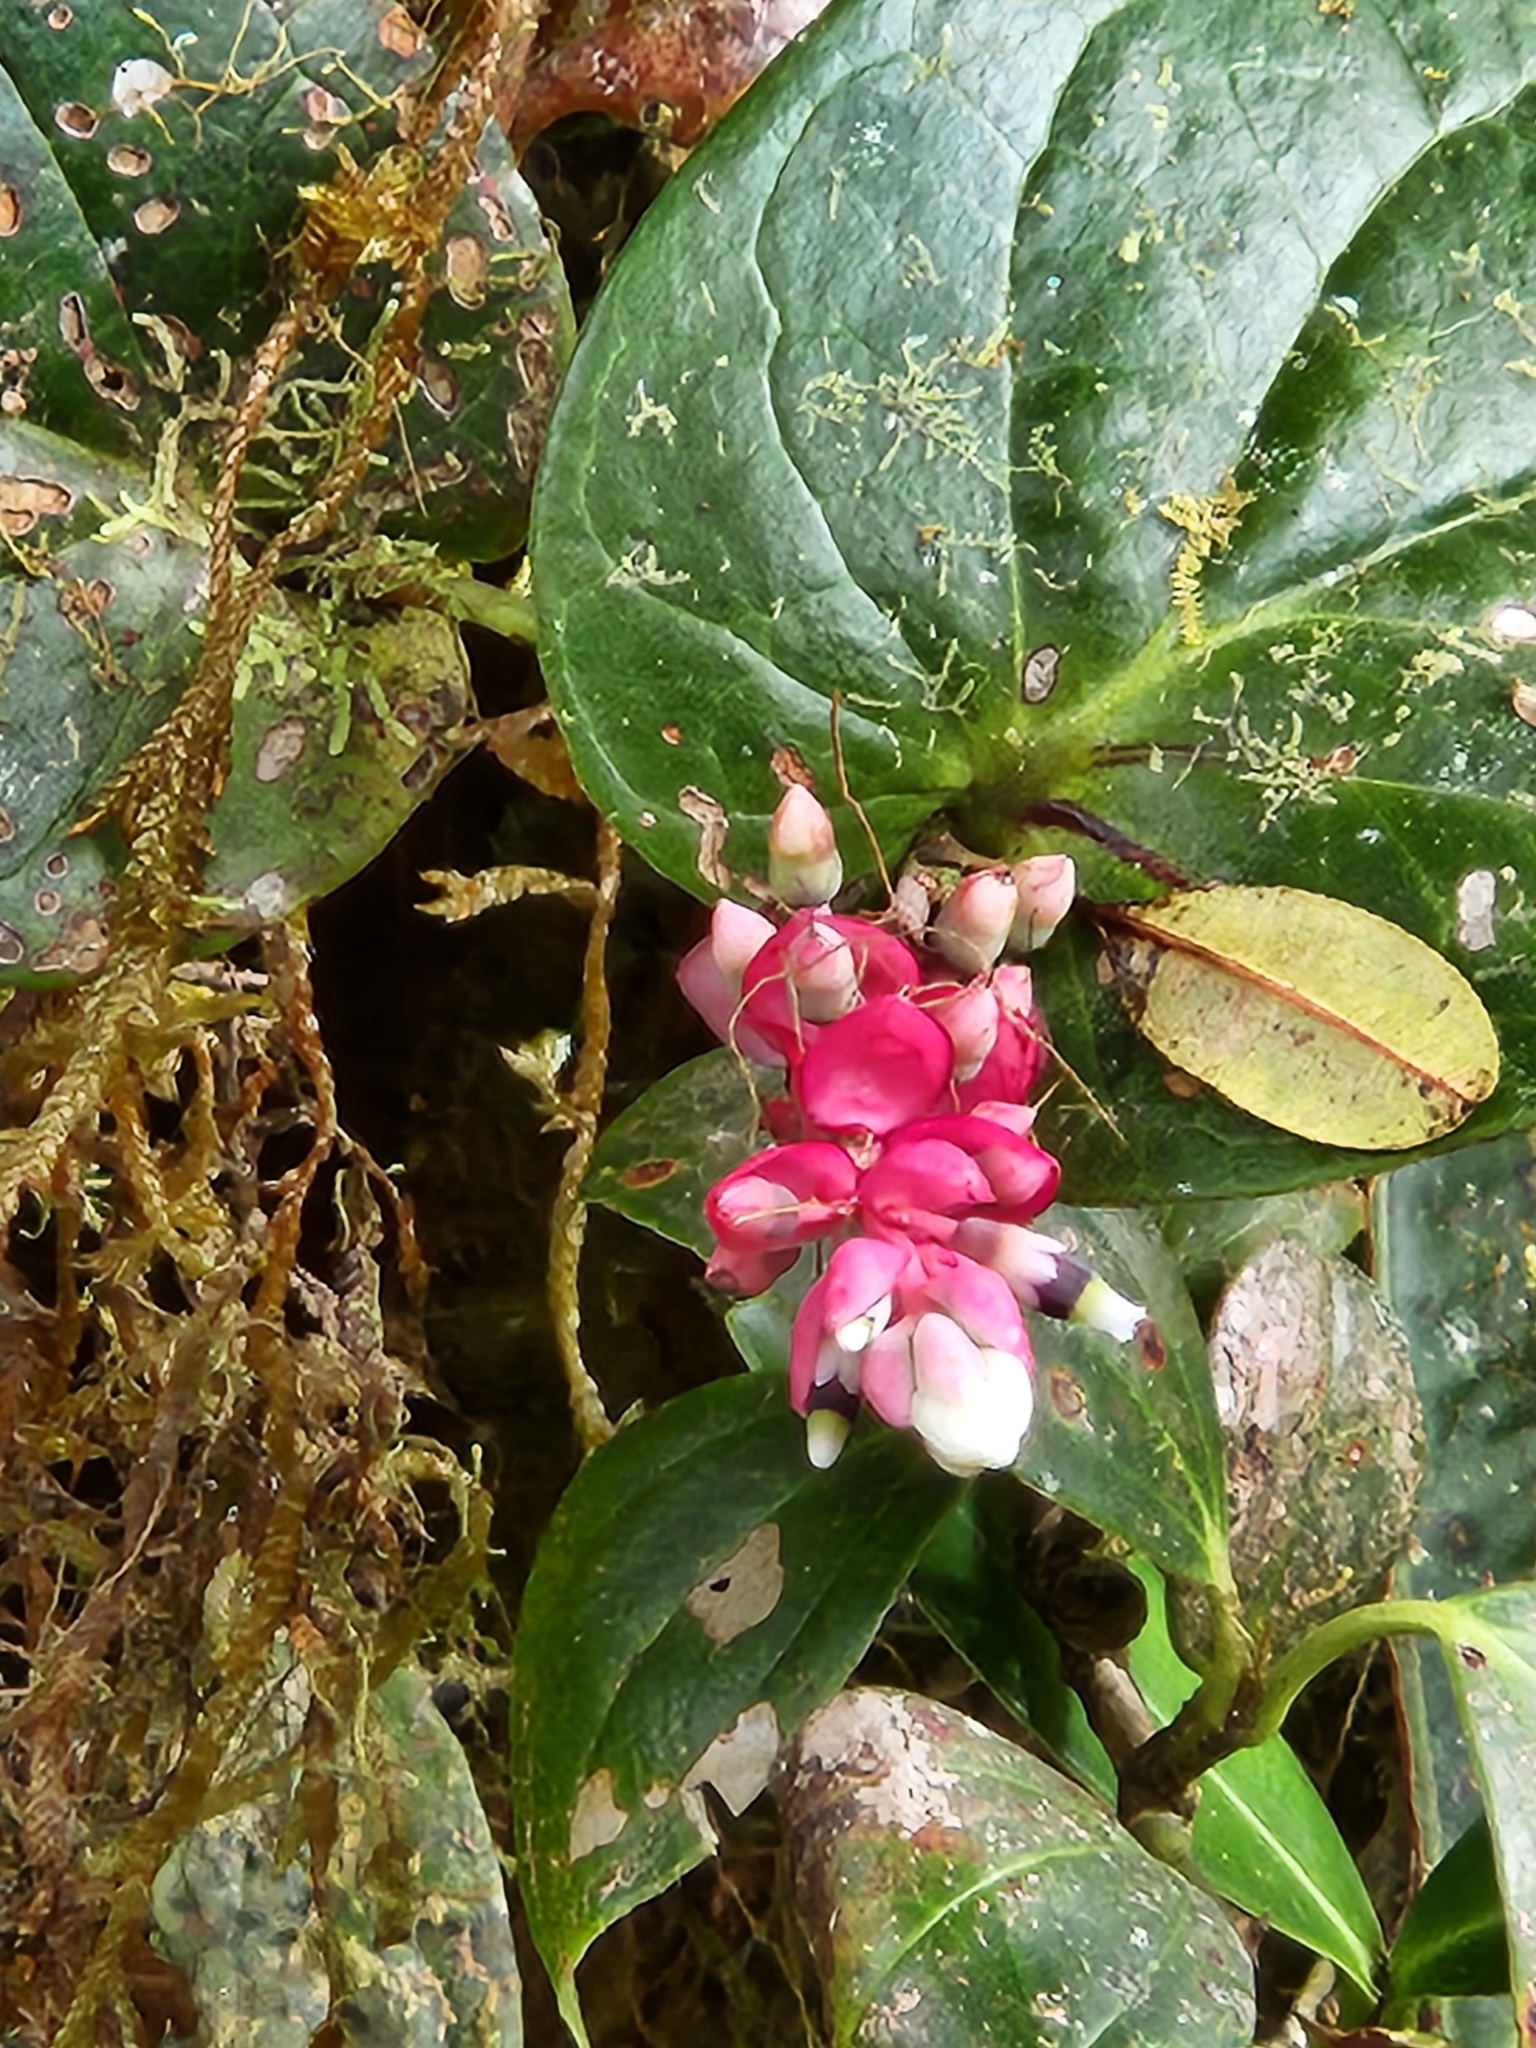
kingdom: Plantae
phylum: Tracheophyta
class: Magnoliopsida
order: Ericales
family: Ericaceae
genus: Cavendishia
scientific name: Cavendishia complectens
